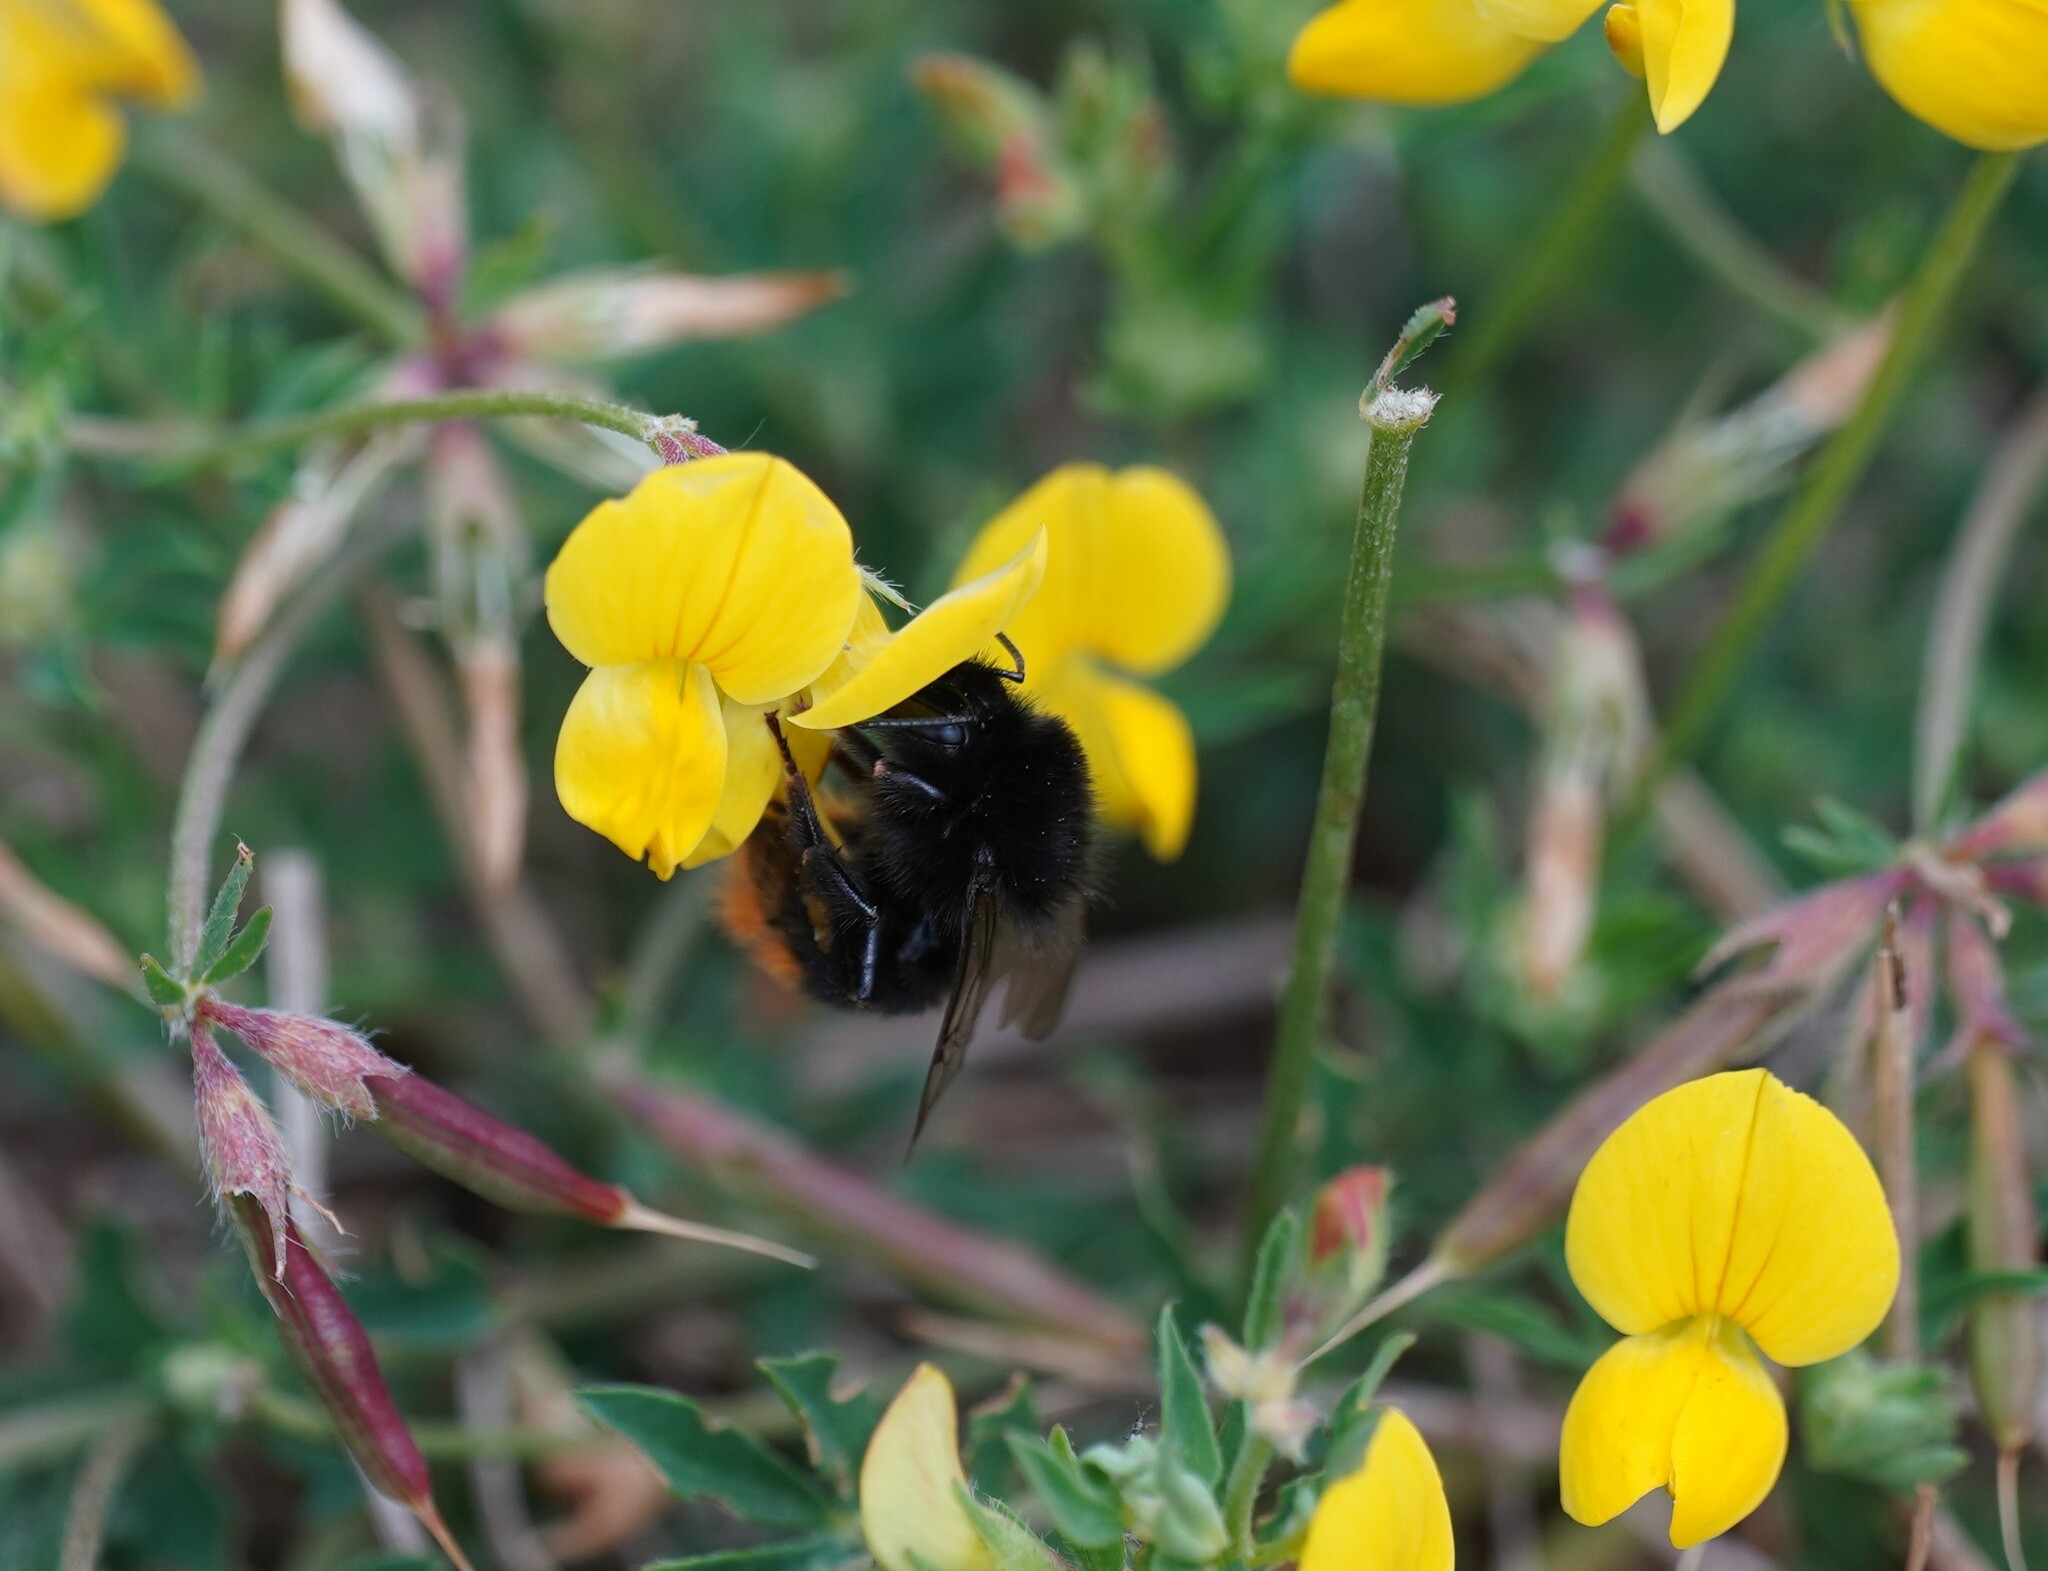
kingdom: Animalia
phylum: Arthropoda
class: Insecta
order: Hymenoptera
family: Apidae
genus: Bombus
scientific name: Bombus lapidarius
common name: Large red-tailed humble-bee
